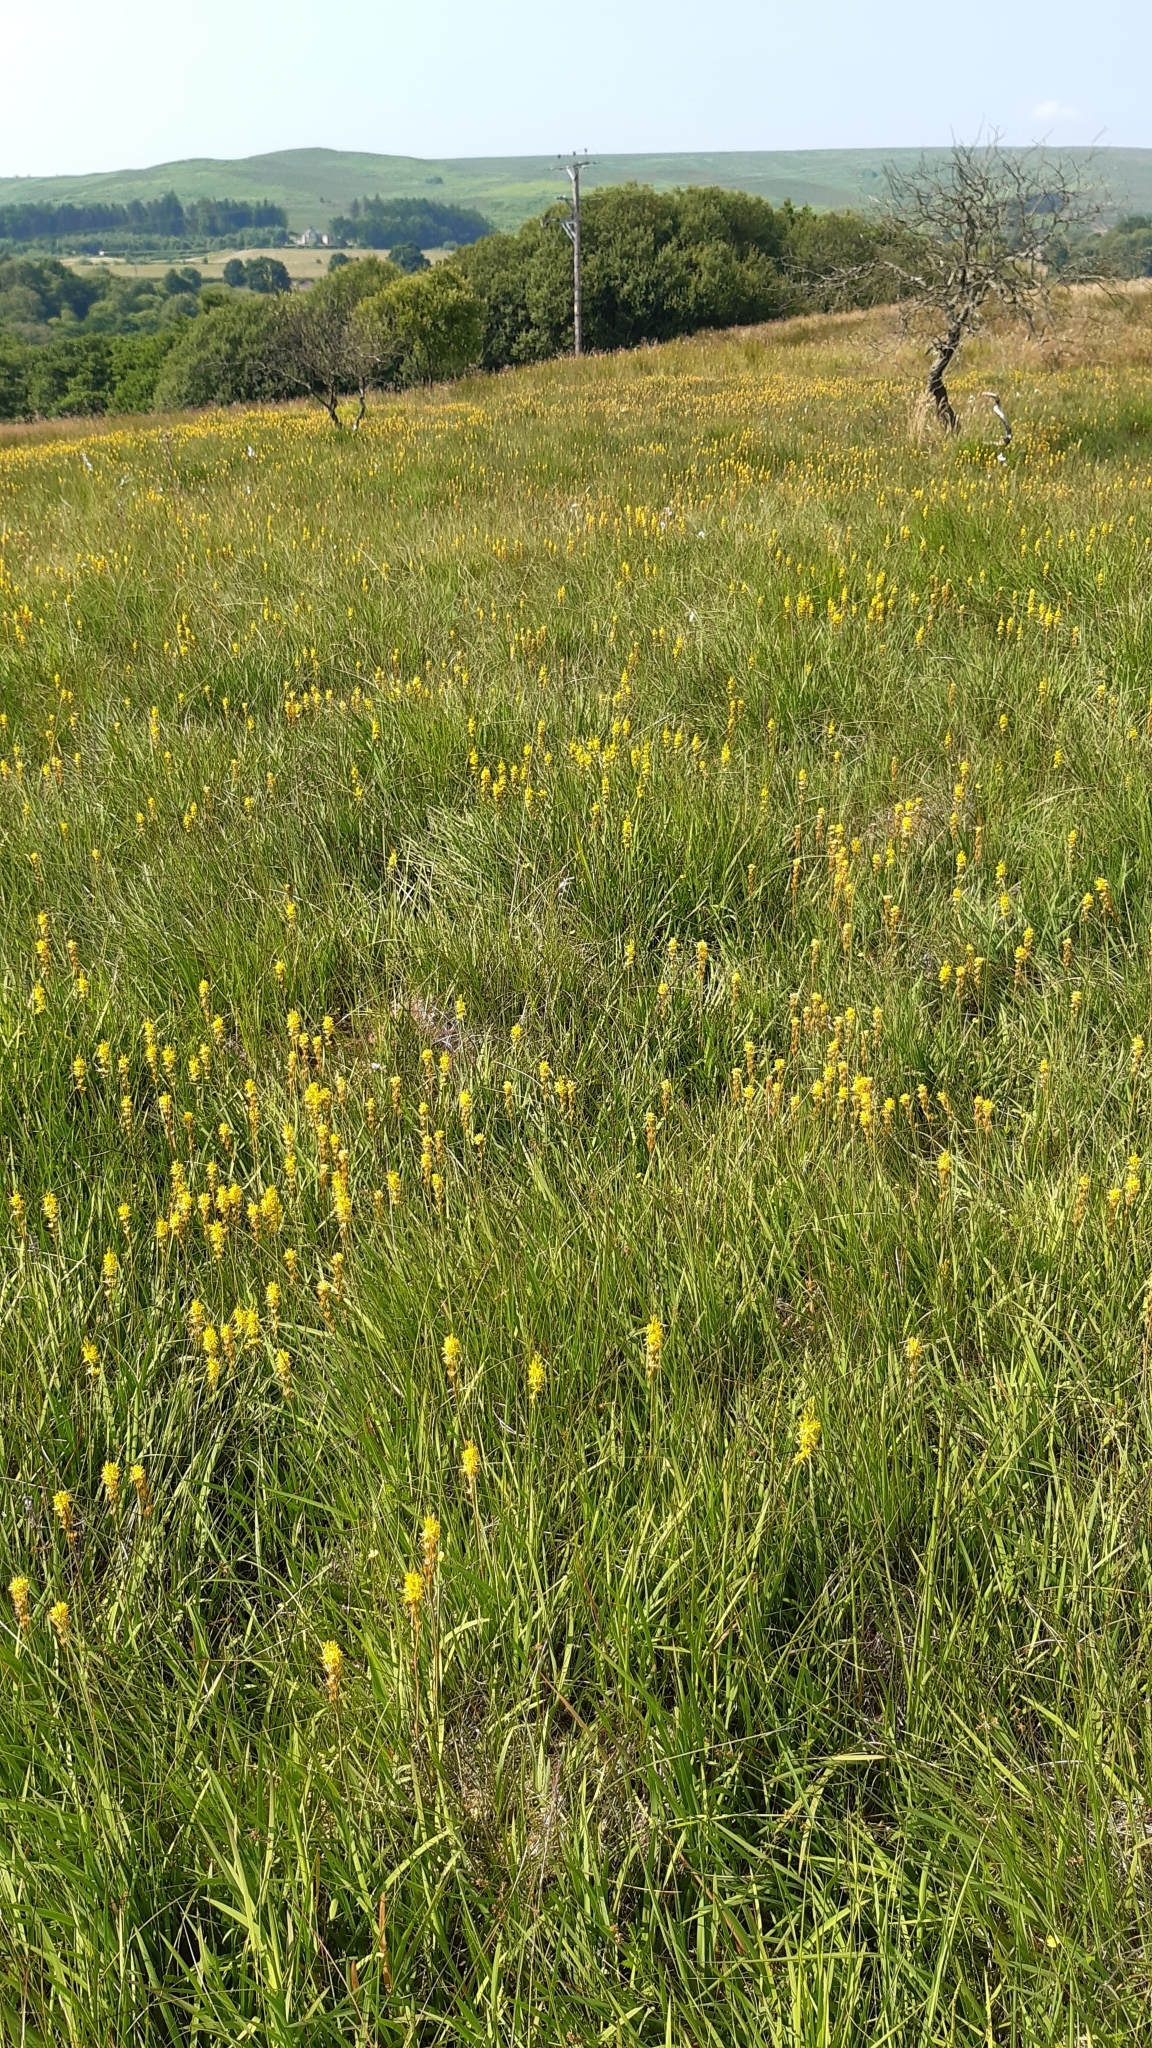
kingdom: Plantae
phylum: Tracheophyta
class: Liliopsida
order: Dioscoreales
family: Nartheciaceae
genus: Narthecium
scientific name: Narthecium ossifragum
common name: Bog asphodel
